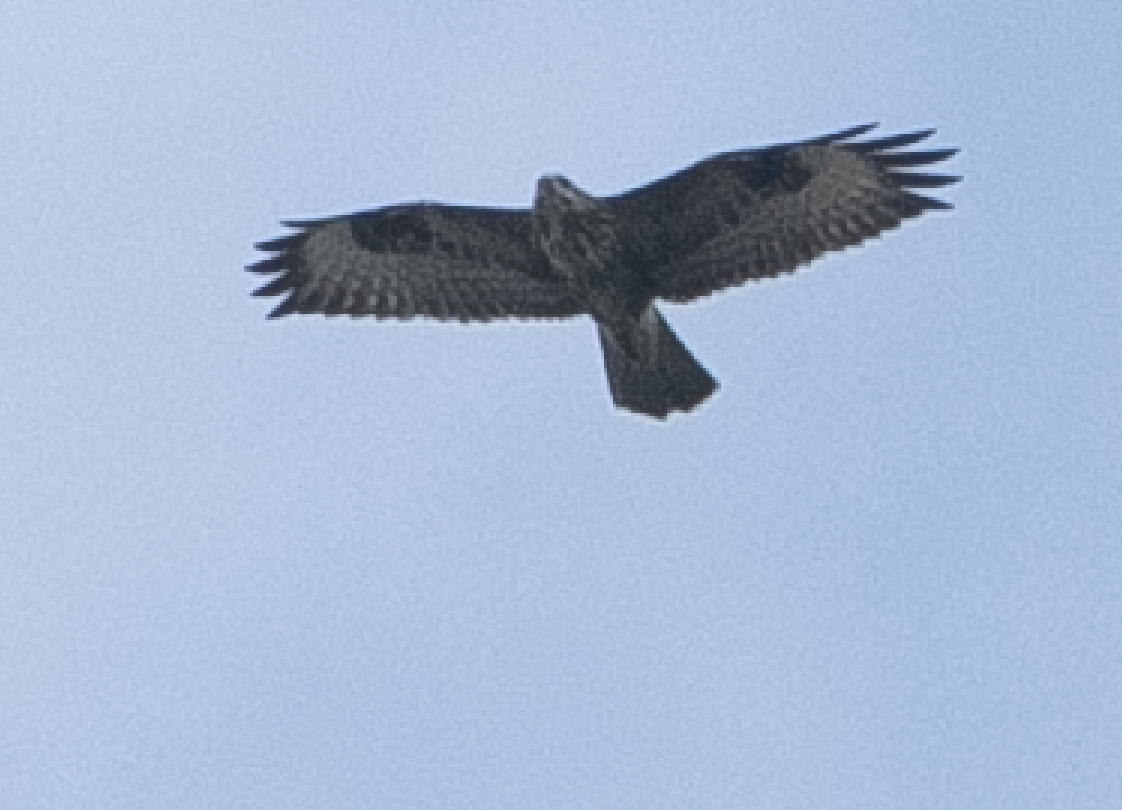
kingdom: Animalia
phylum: Chordata
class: Aves
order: Accipitriformes
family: Accipitridae
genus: Buteo
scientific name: Buteo buteo
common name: Common buzzard
